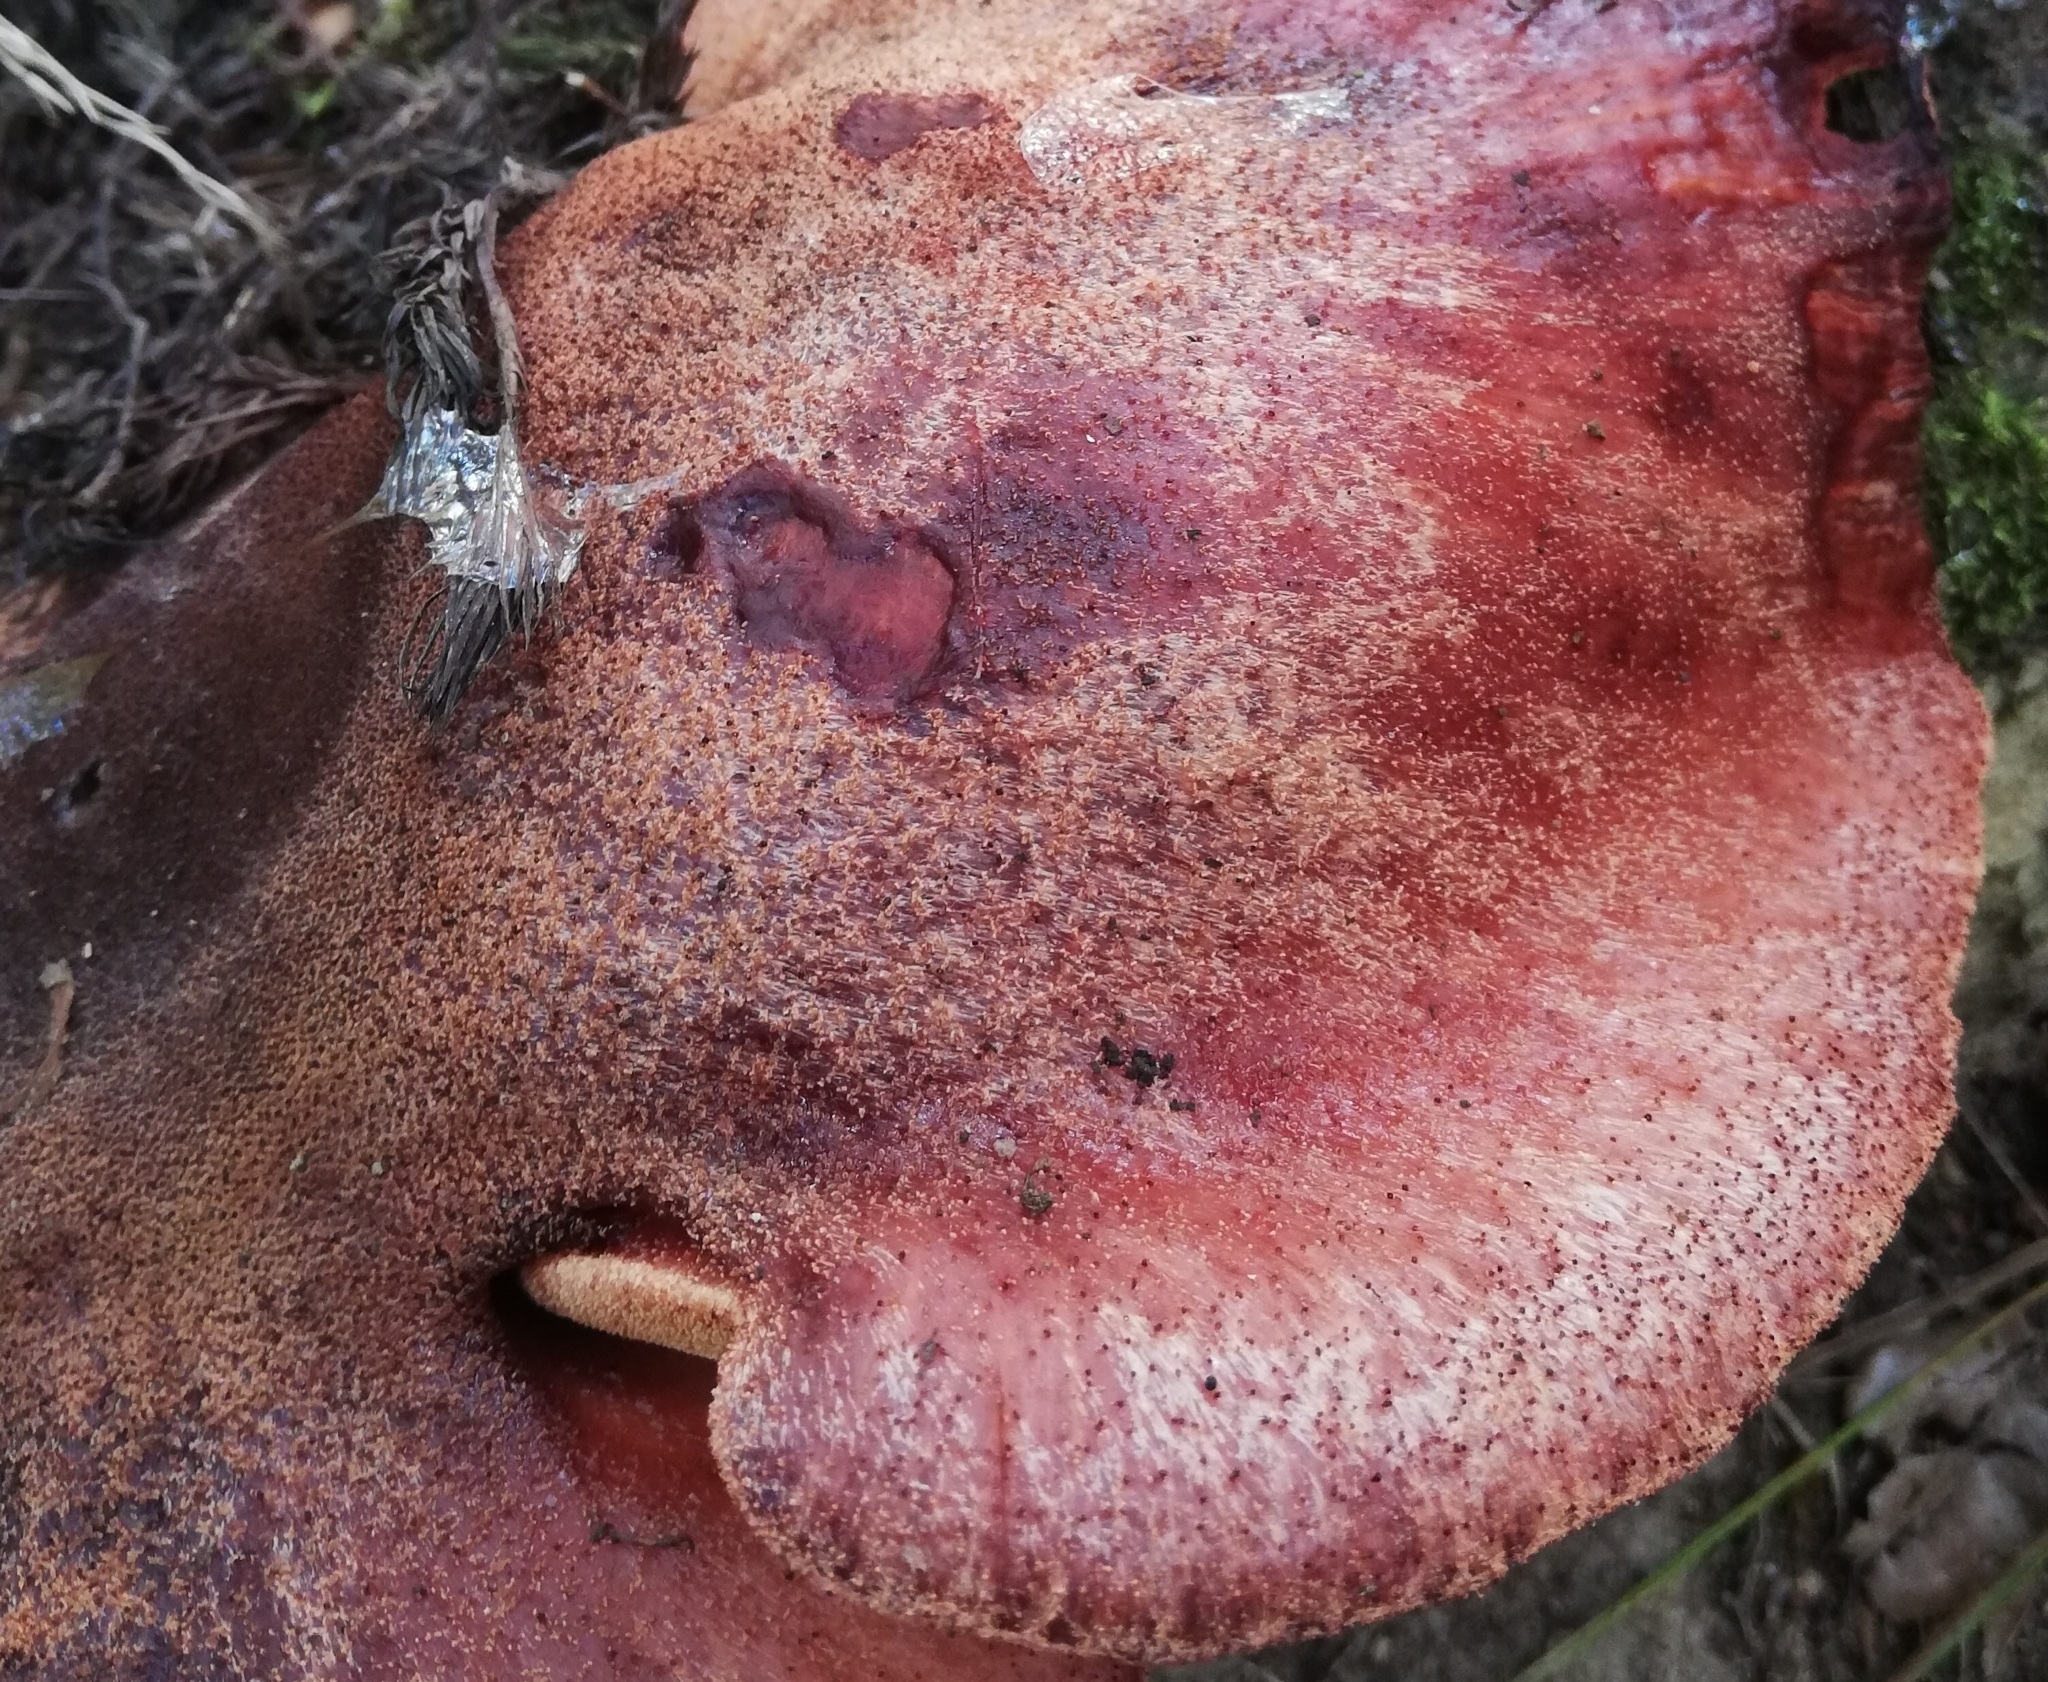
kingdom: Fungi
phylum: Basidiomycota
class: Agaricomycetes
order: Agaricales
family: Fistulinaceae
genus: Fistulina
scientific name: Fistulina hepatica
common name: Beef-steak fungus
